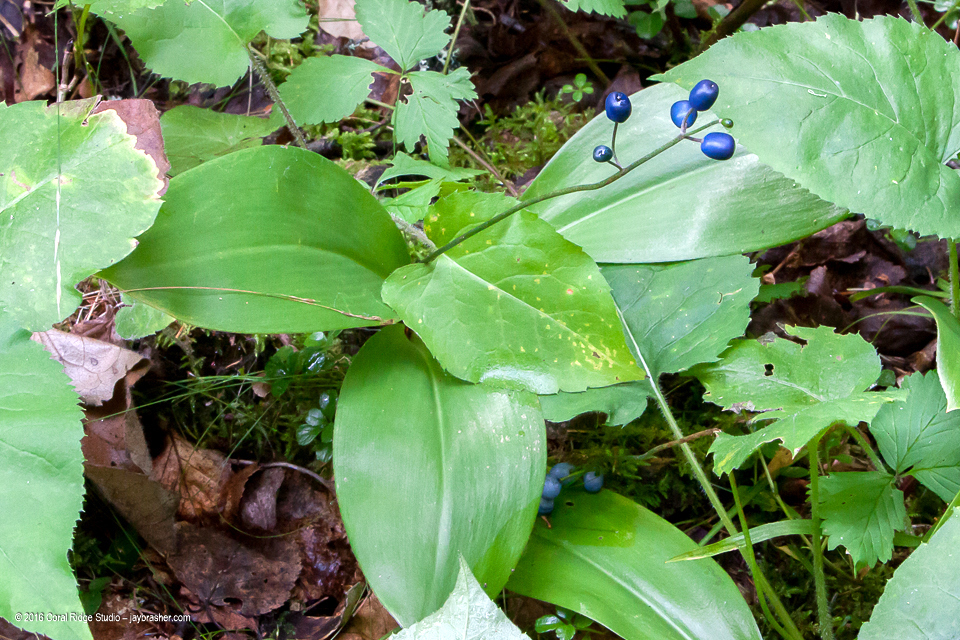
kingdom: Plantae
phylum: Tracheophyta
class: Liliopsida
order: Liliales
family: Liliaceae
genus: Clintonia
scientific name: Clintonia borealis
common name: Yellow clintonia
